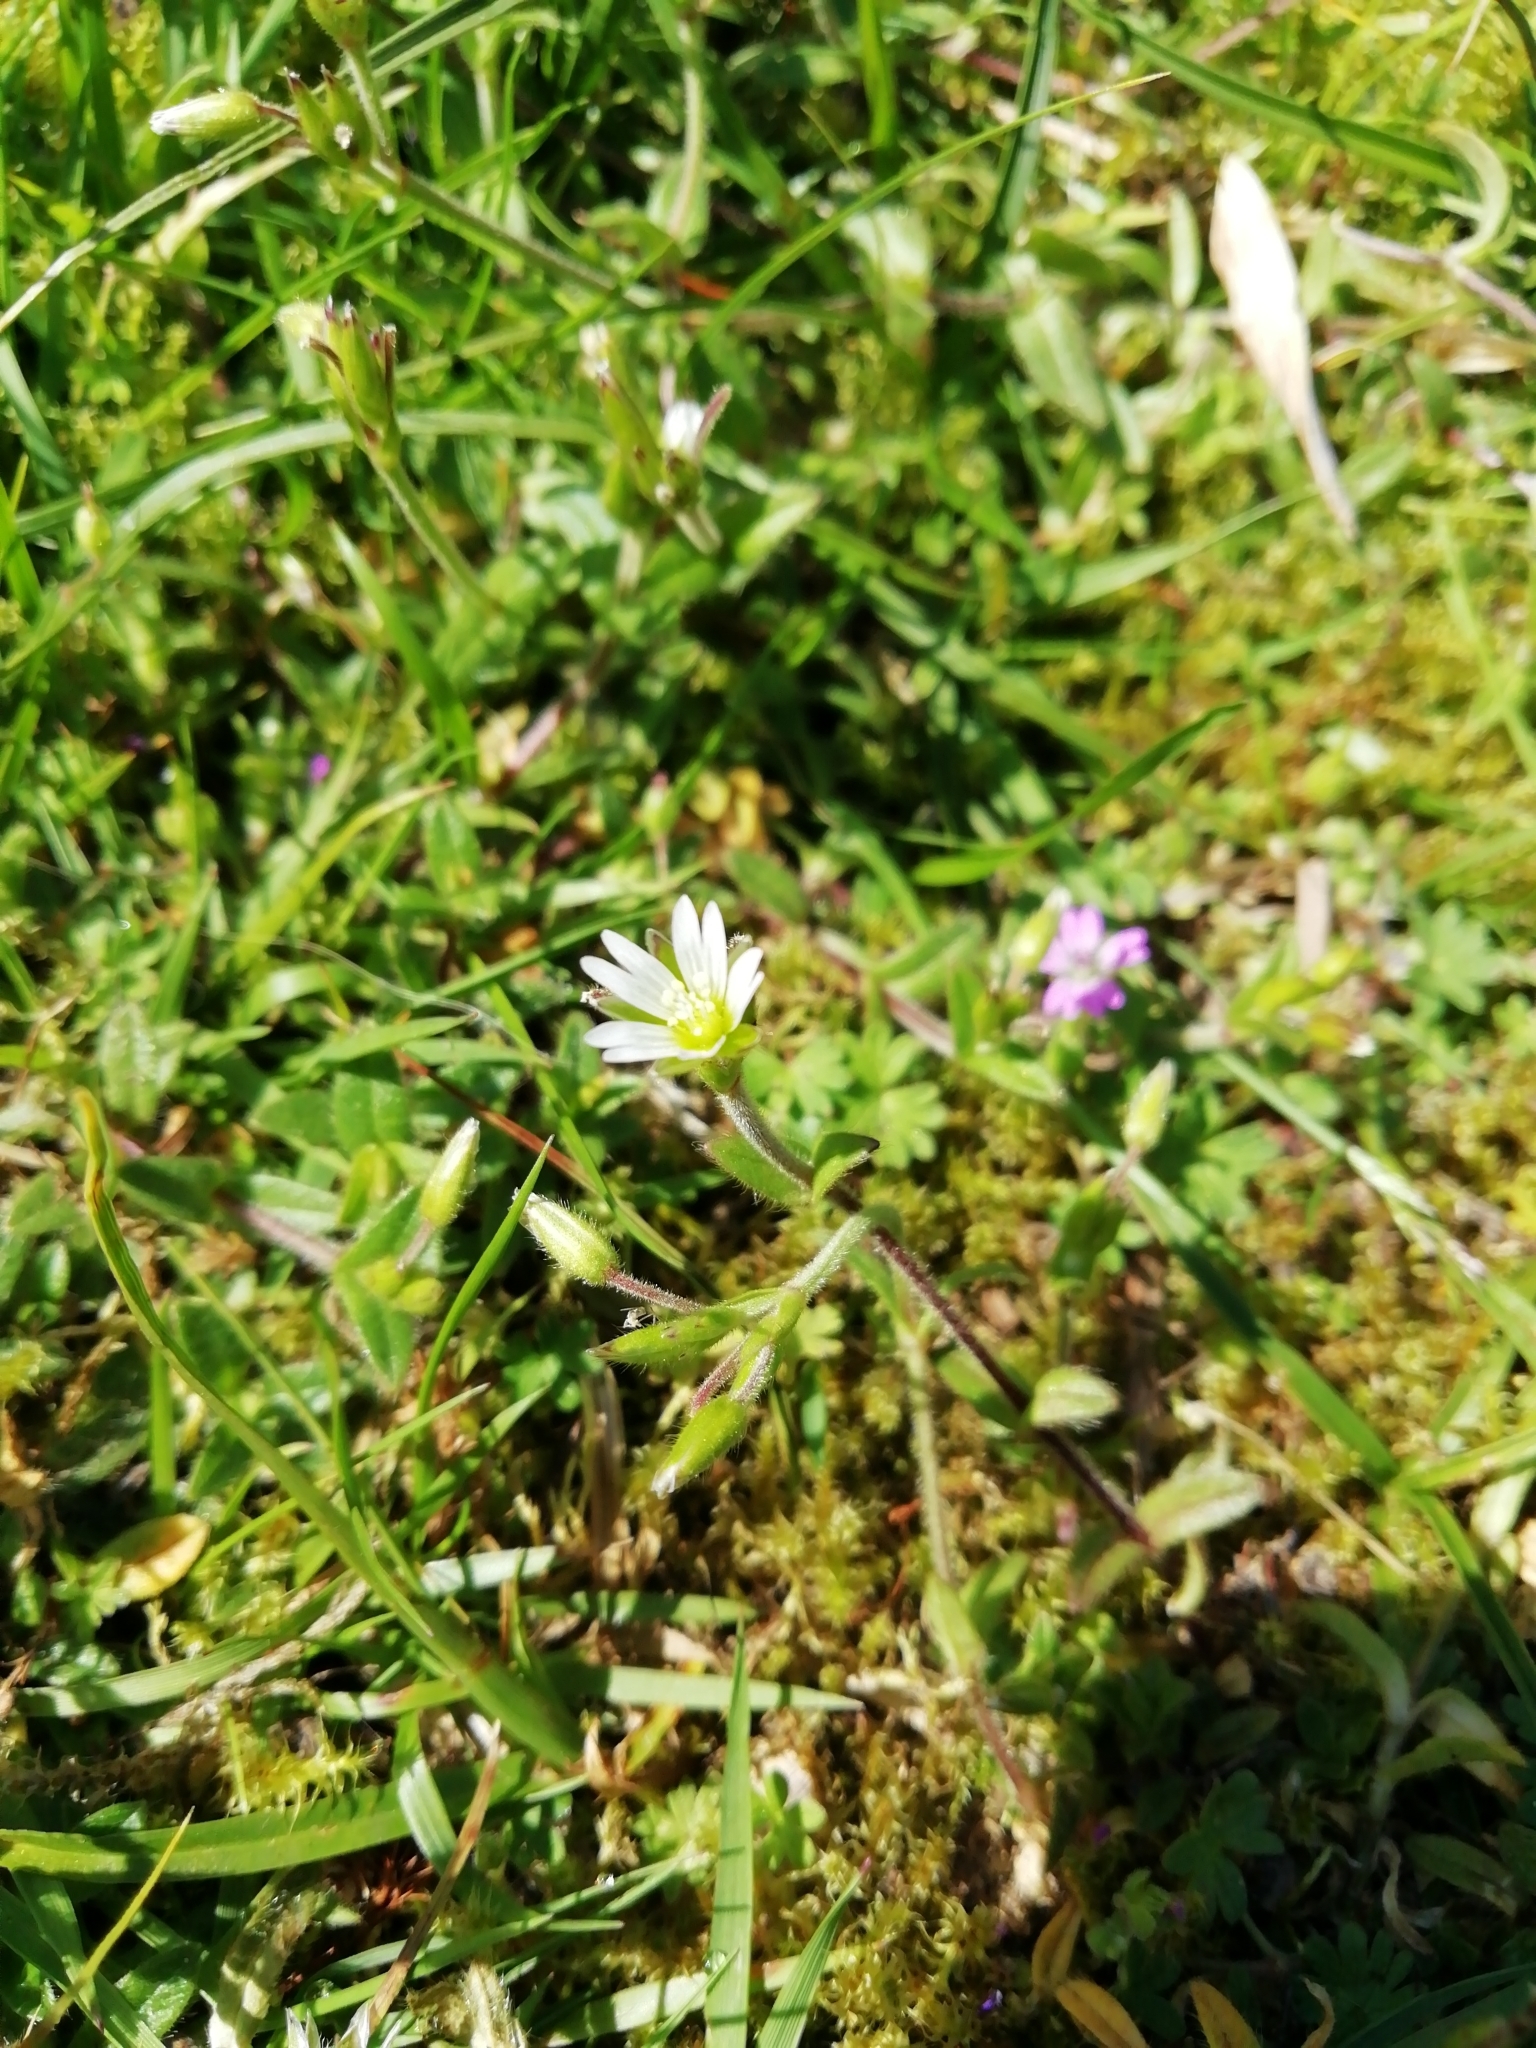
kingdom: Plantae
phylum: Tracheophyta
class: Magnoliopsida
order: Caryophyllales
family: Caryophyllaceae
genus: Cerastium
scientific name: Cerastium fontanum
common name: Common mouse-ear
